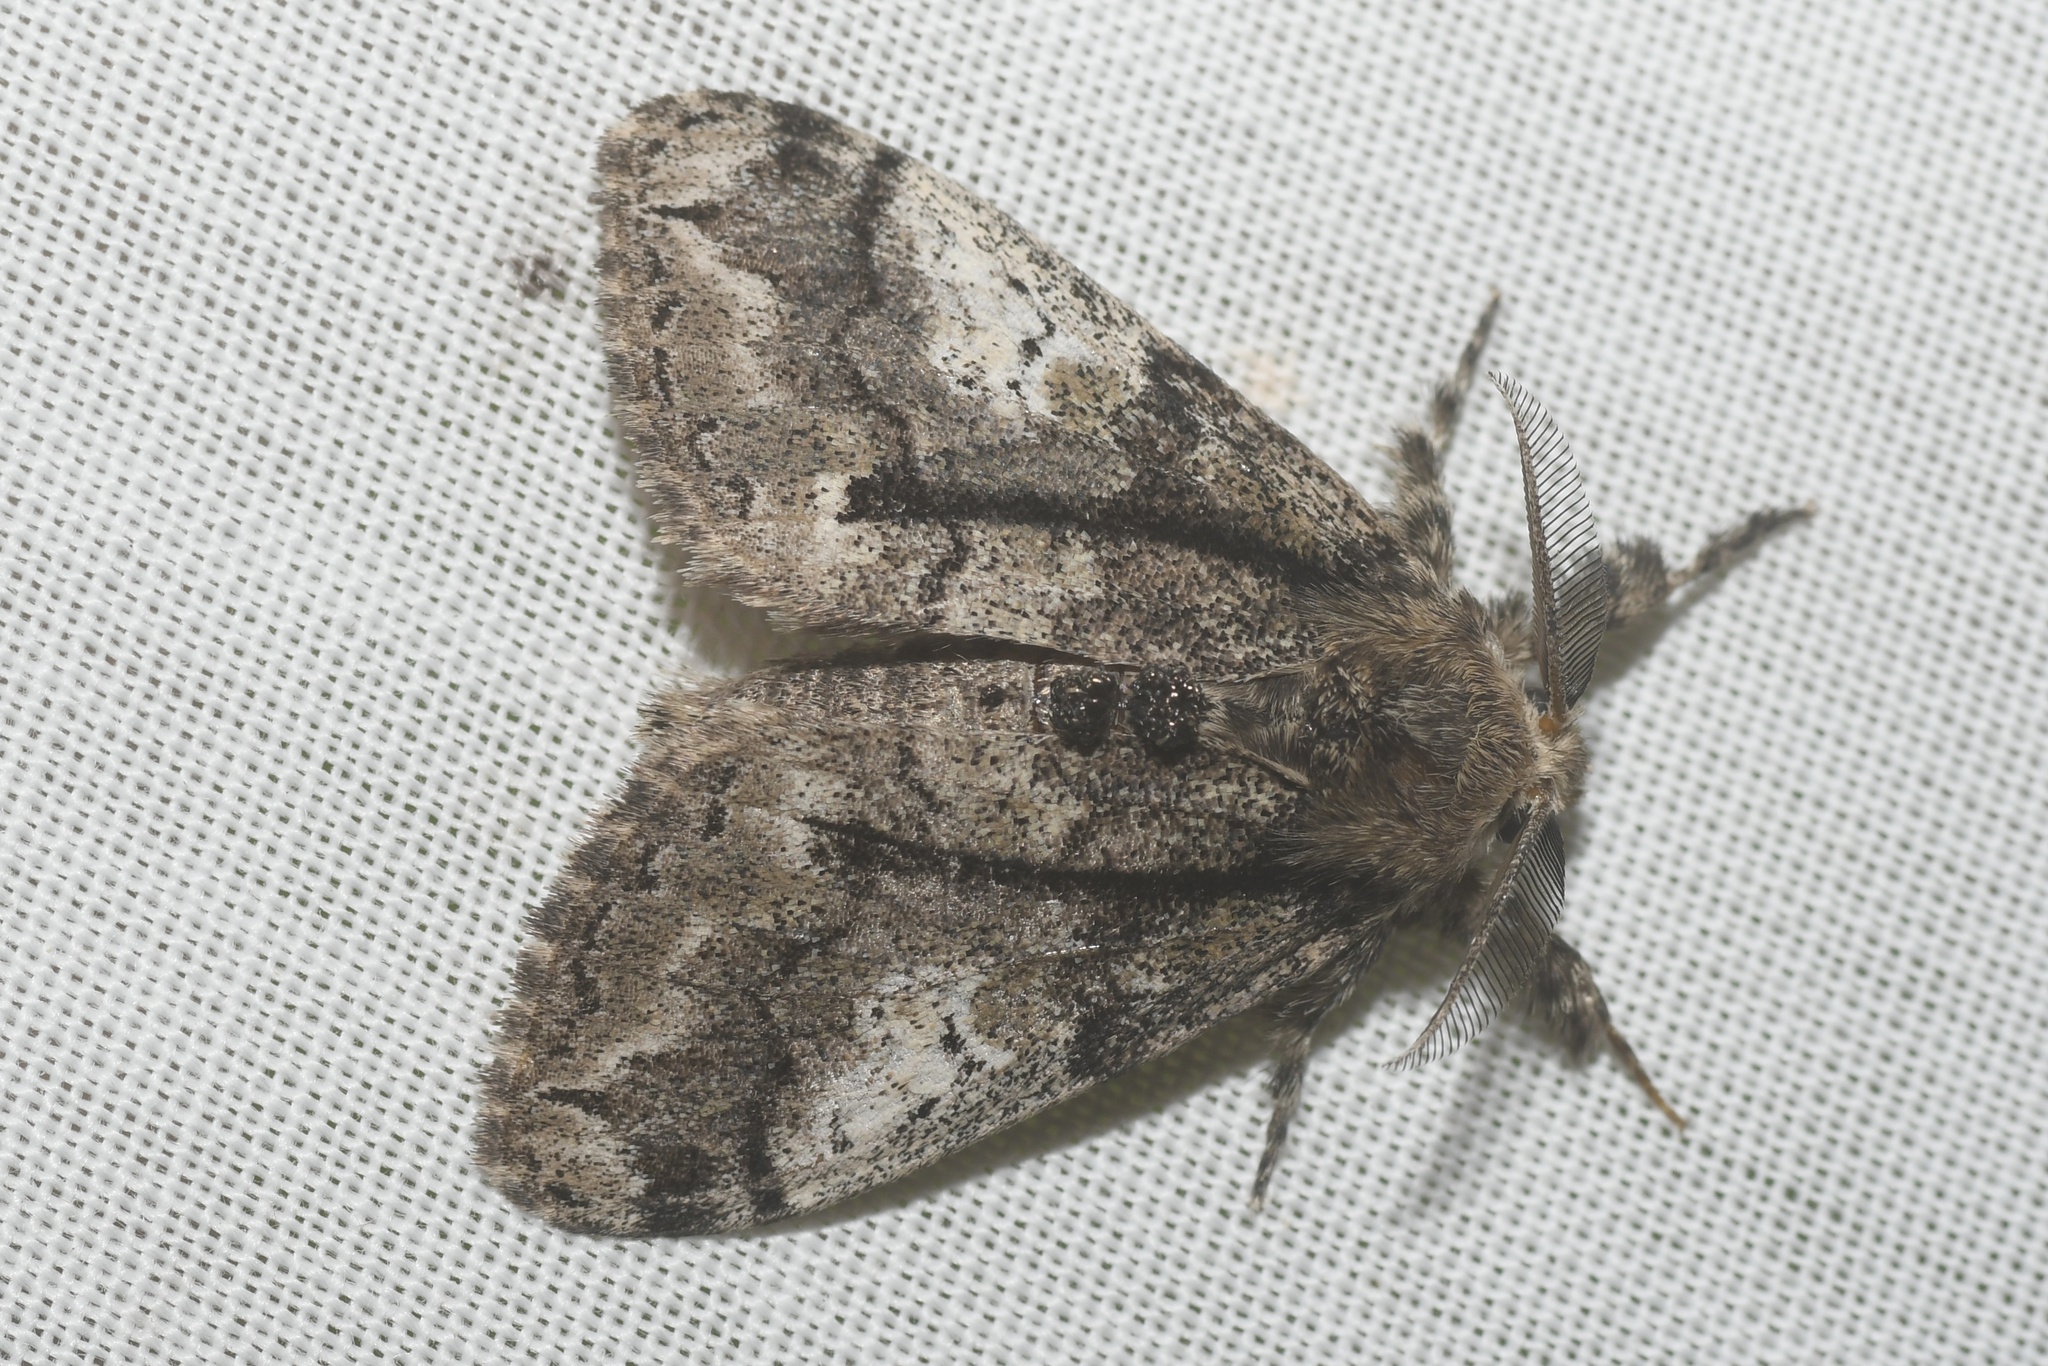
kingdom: Animalia
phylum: Arthropoda
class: Insecta
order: Lepidoptera
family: Erebidae
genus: Dasychira
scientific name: Dasychira obliquata
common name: Streaked tussock moth
